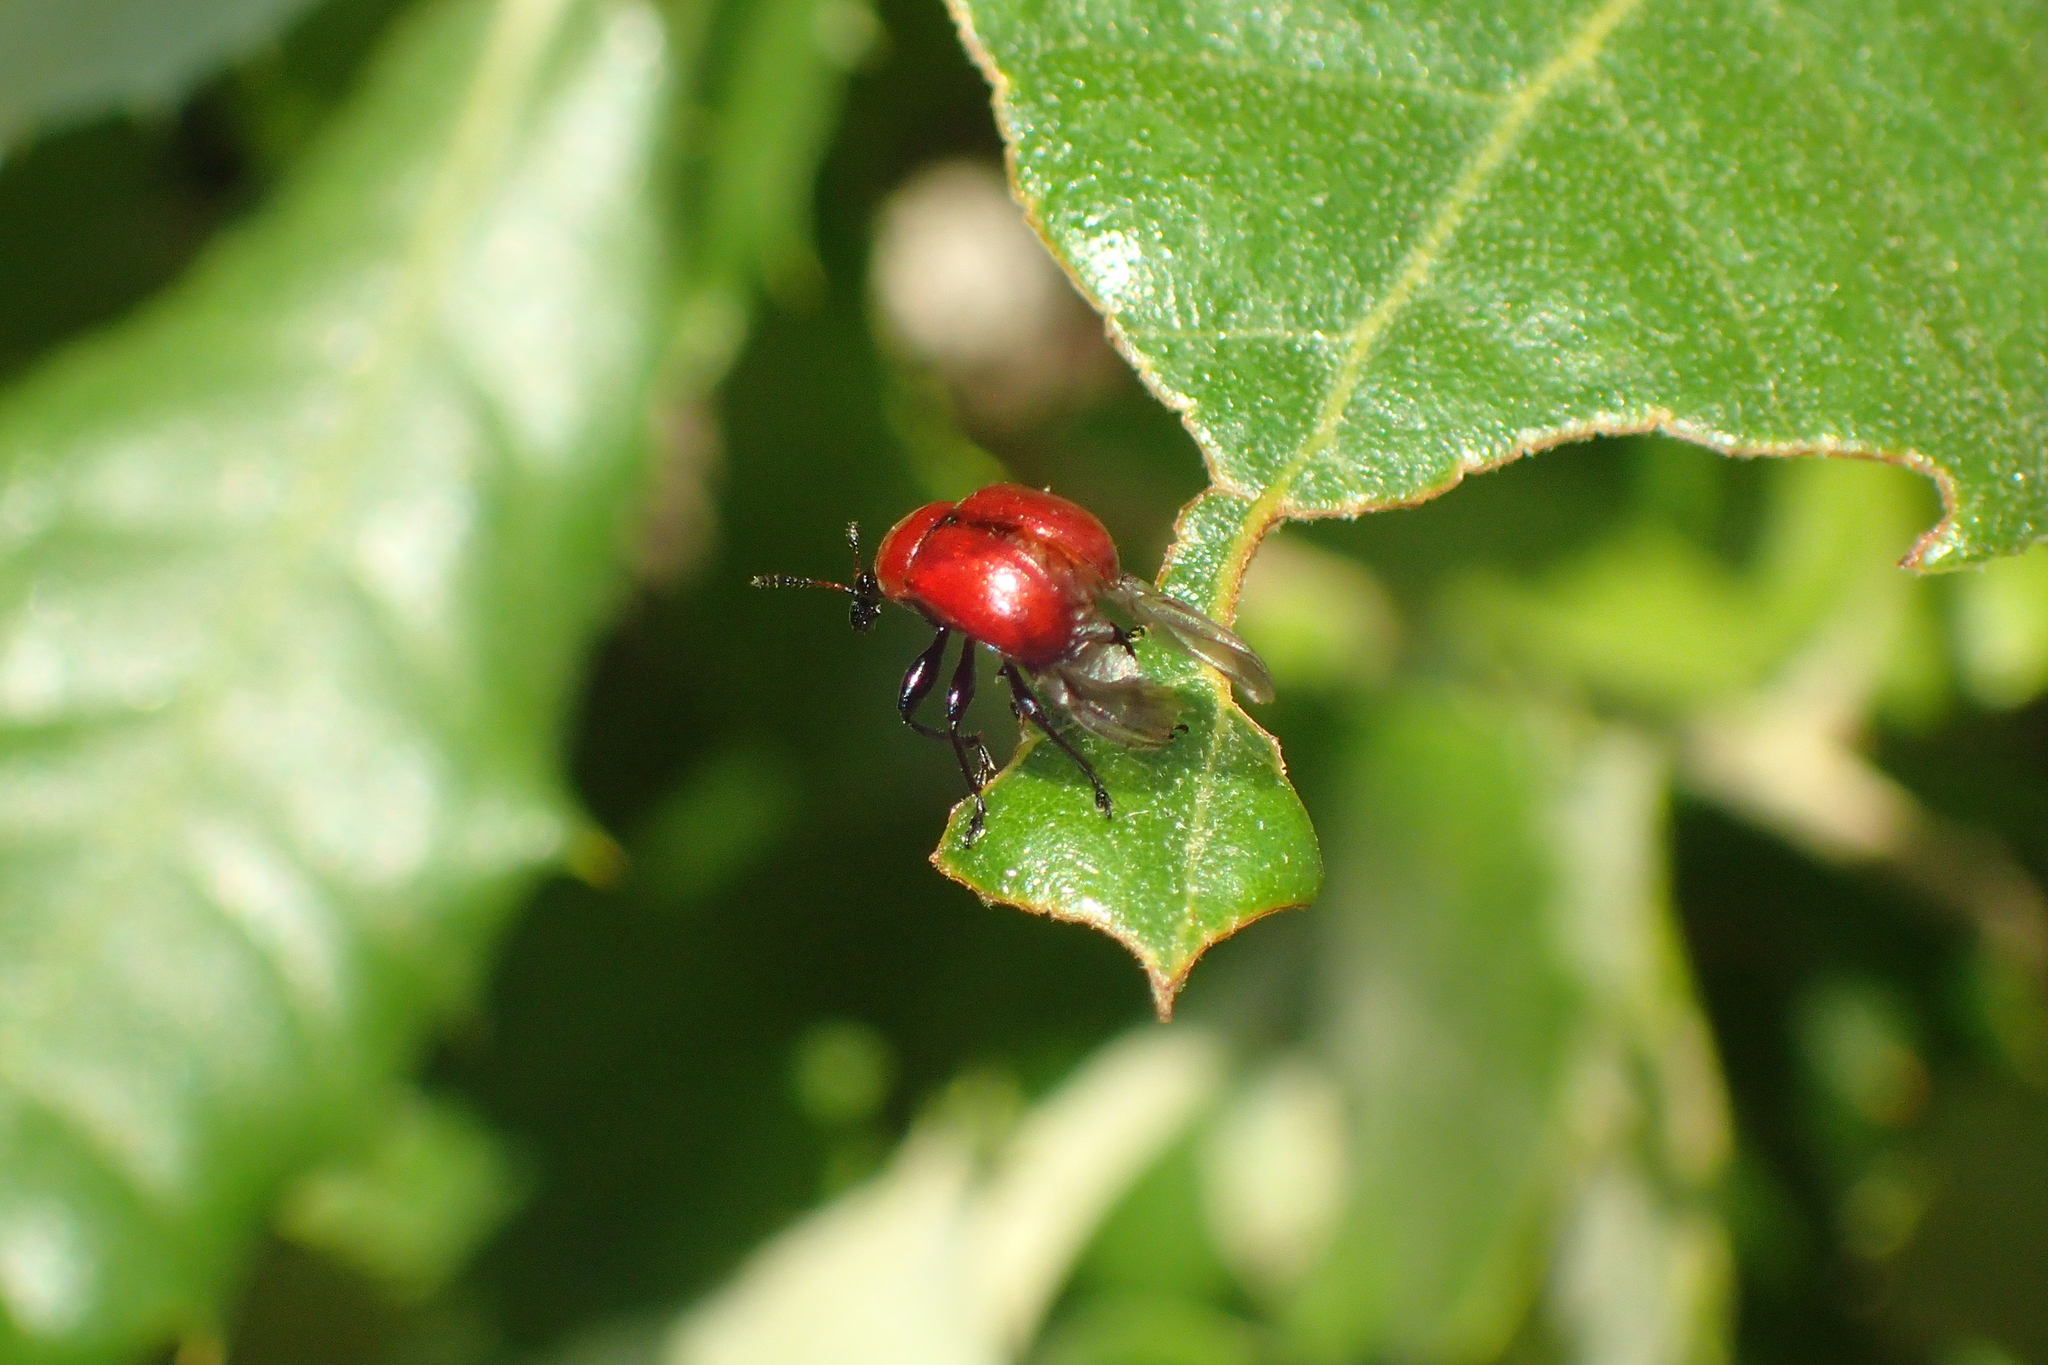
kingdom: Animalia
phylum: Arthropoda
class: Insecta
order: Coleoptera
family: Attelabidae
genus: Attelabus
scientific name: Attelabus nitens
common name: Oak leaf-roller
